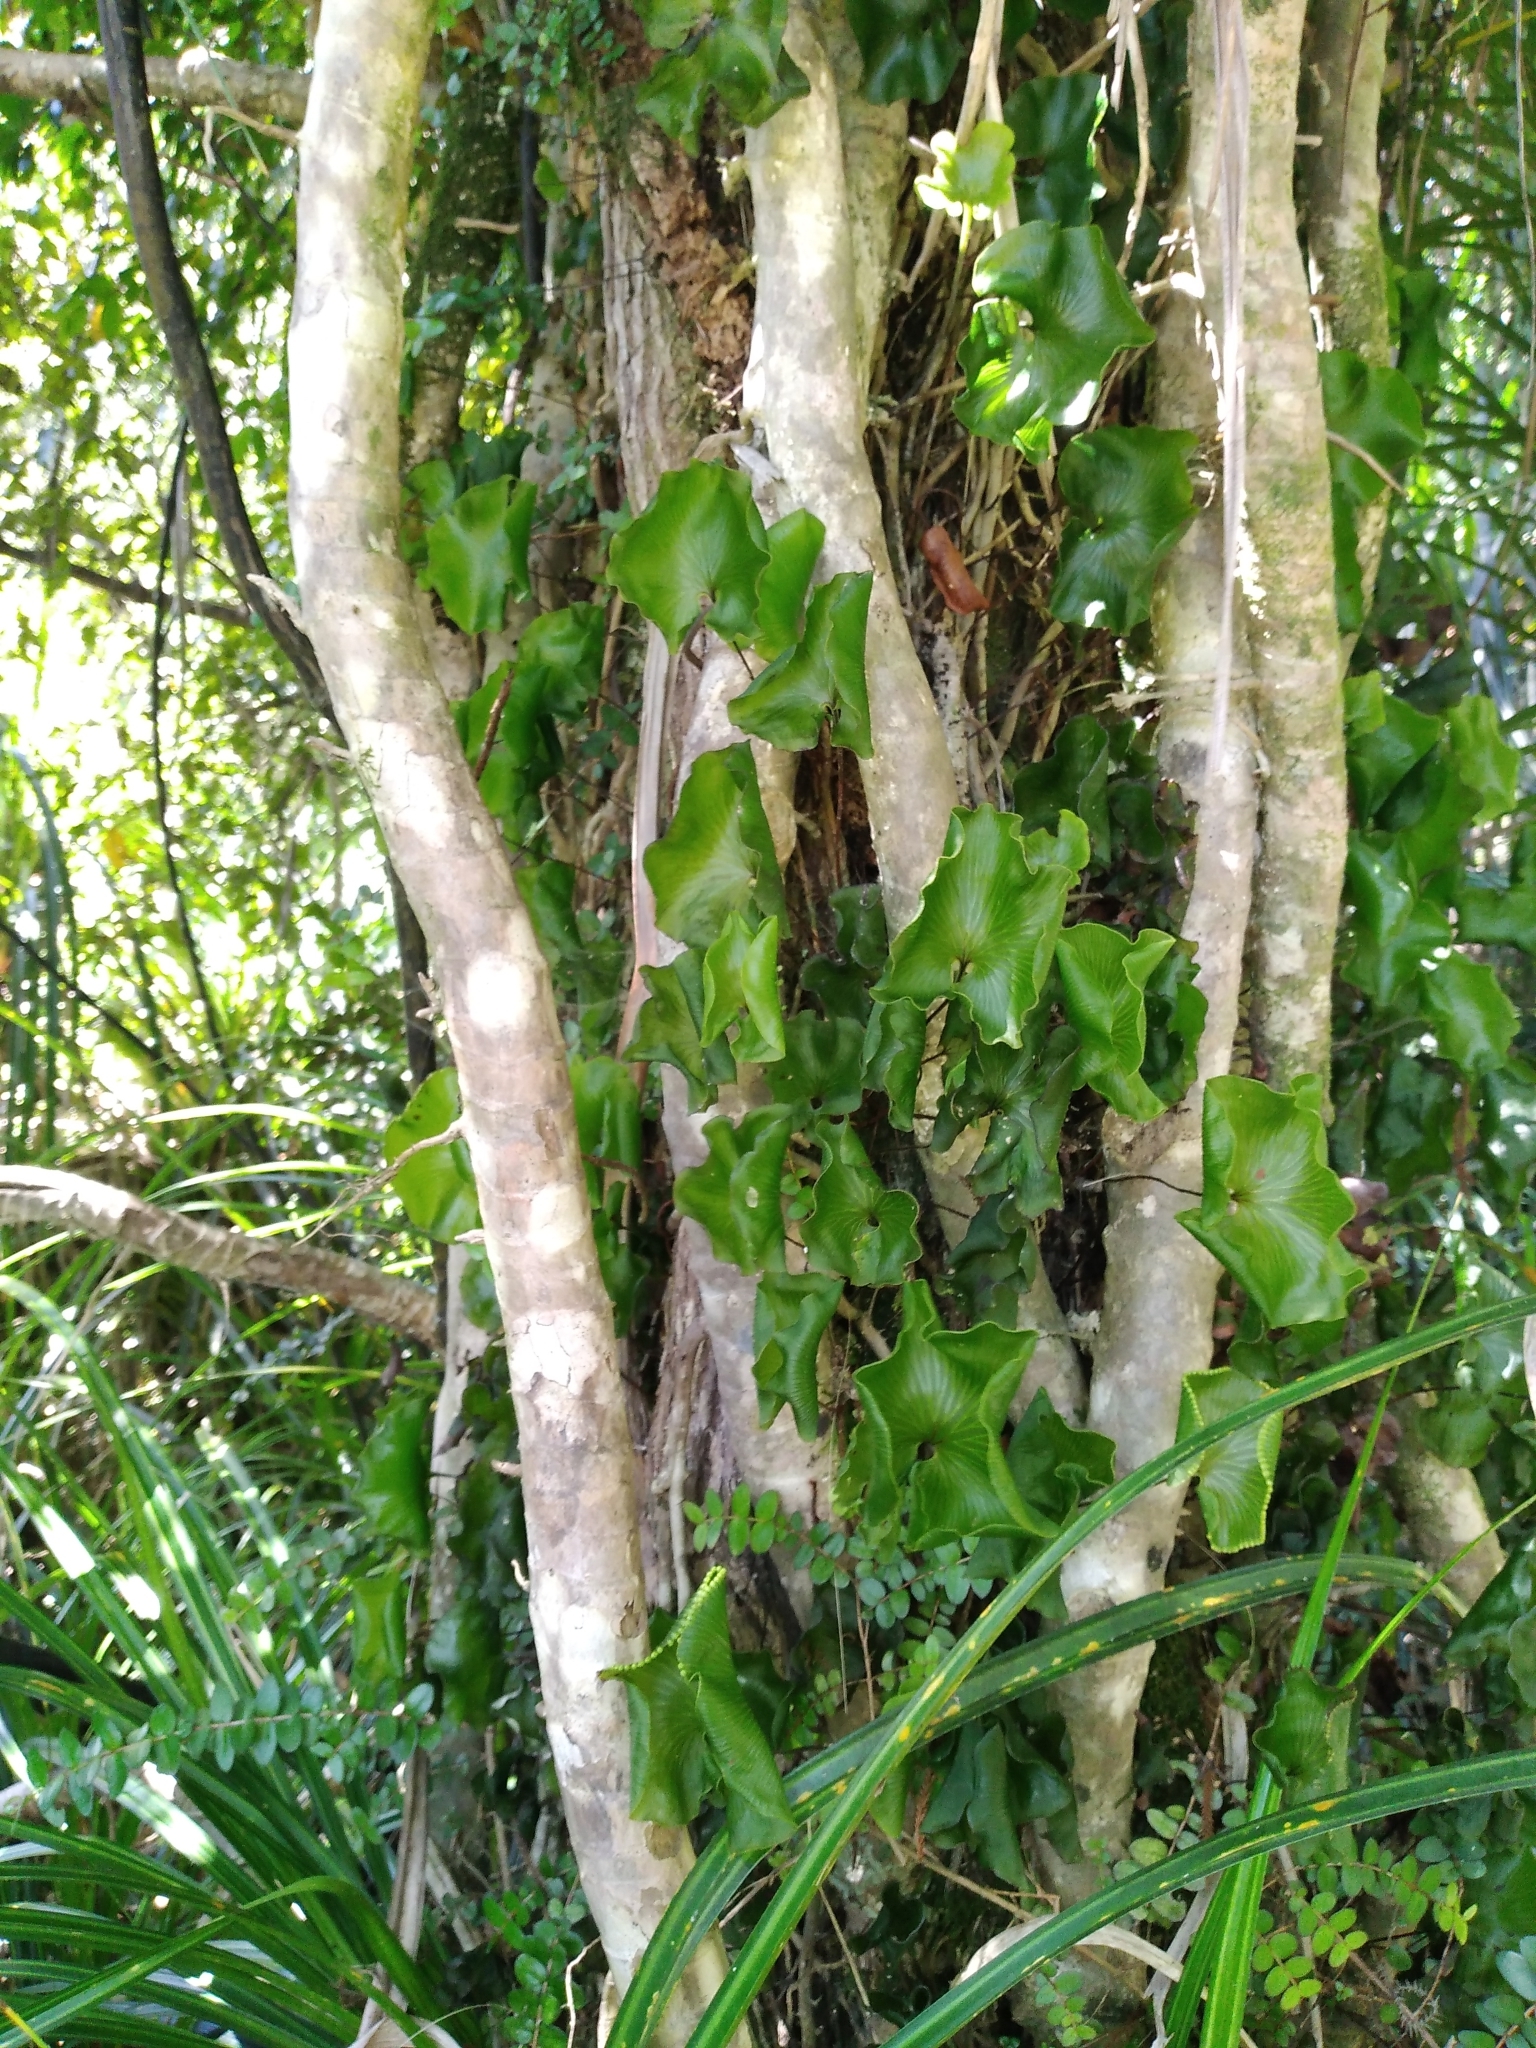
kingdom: Plantae
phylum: Tracheophyta
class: Polypodiopsida
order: Hymenophyllales
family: Hymenophyllaceae
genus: Hymenophyllum
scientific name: Hymenophyllum nephrophyllum
